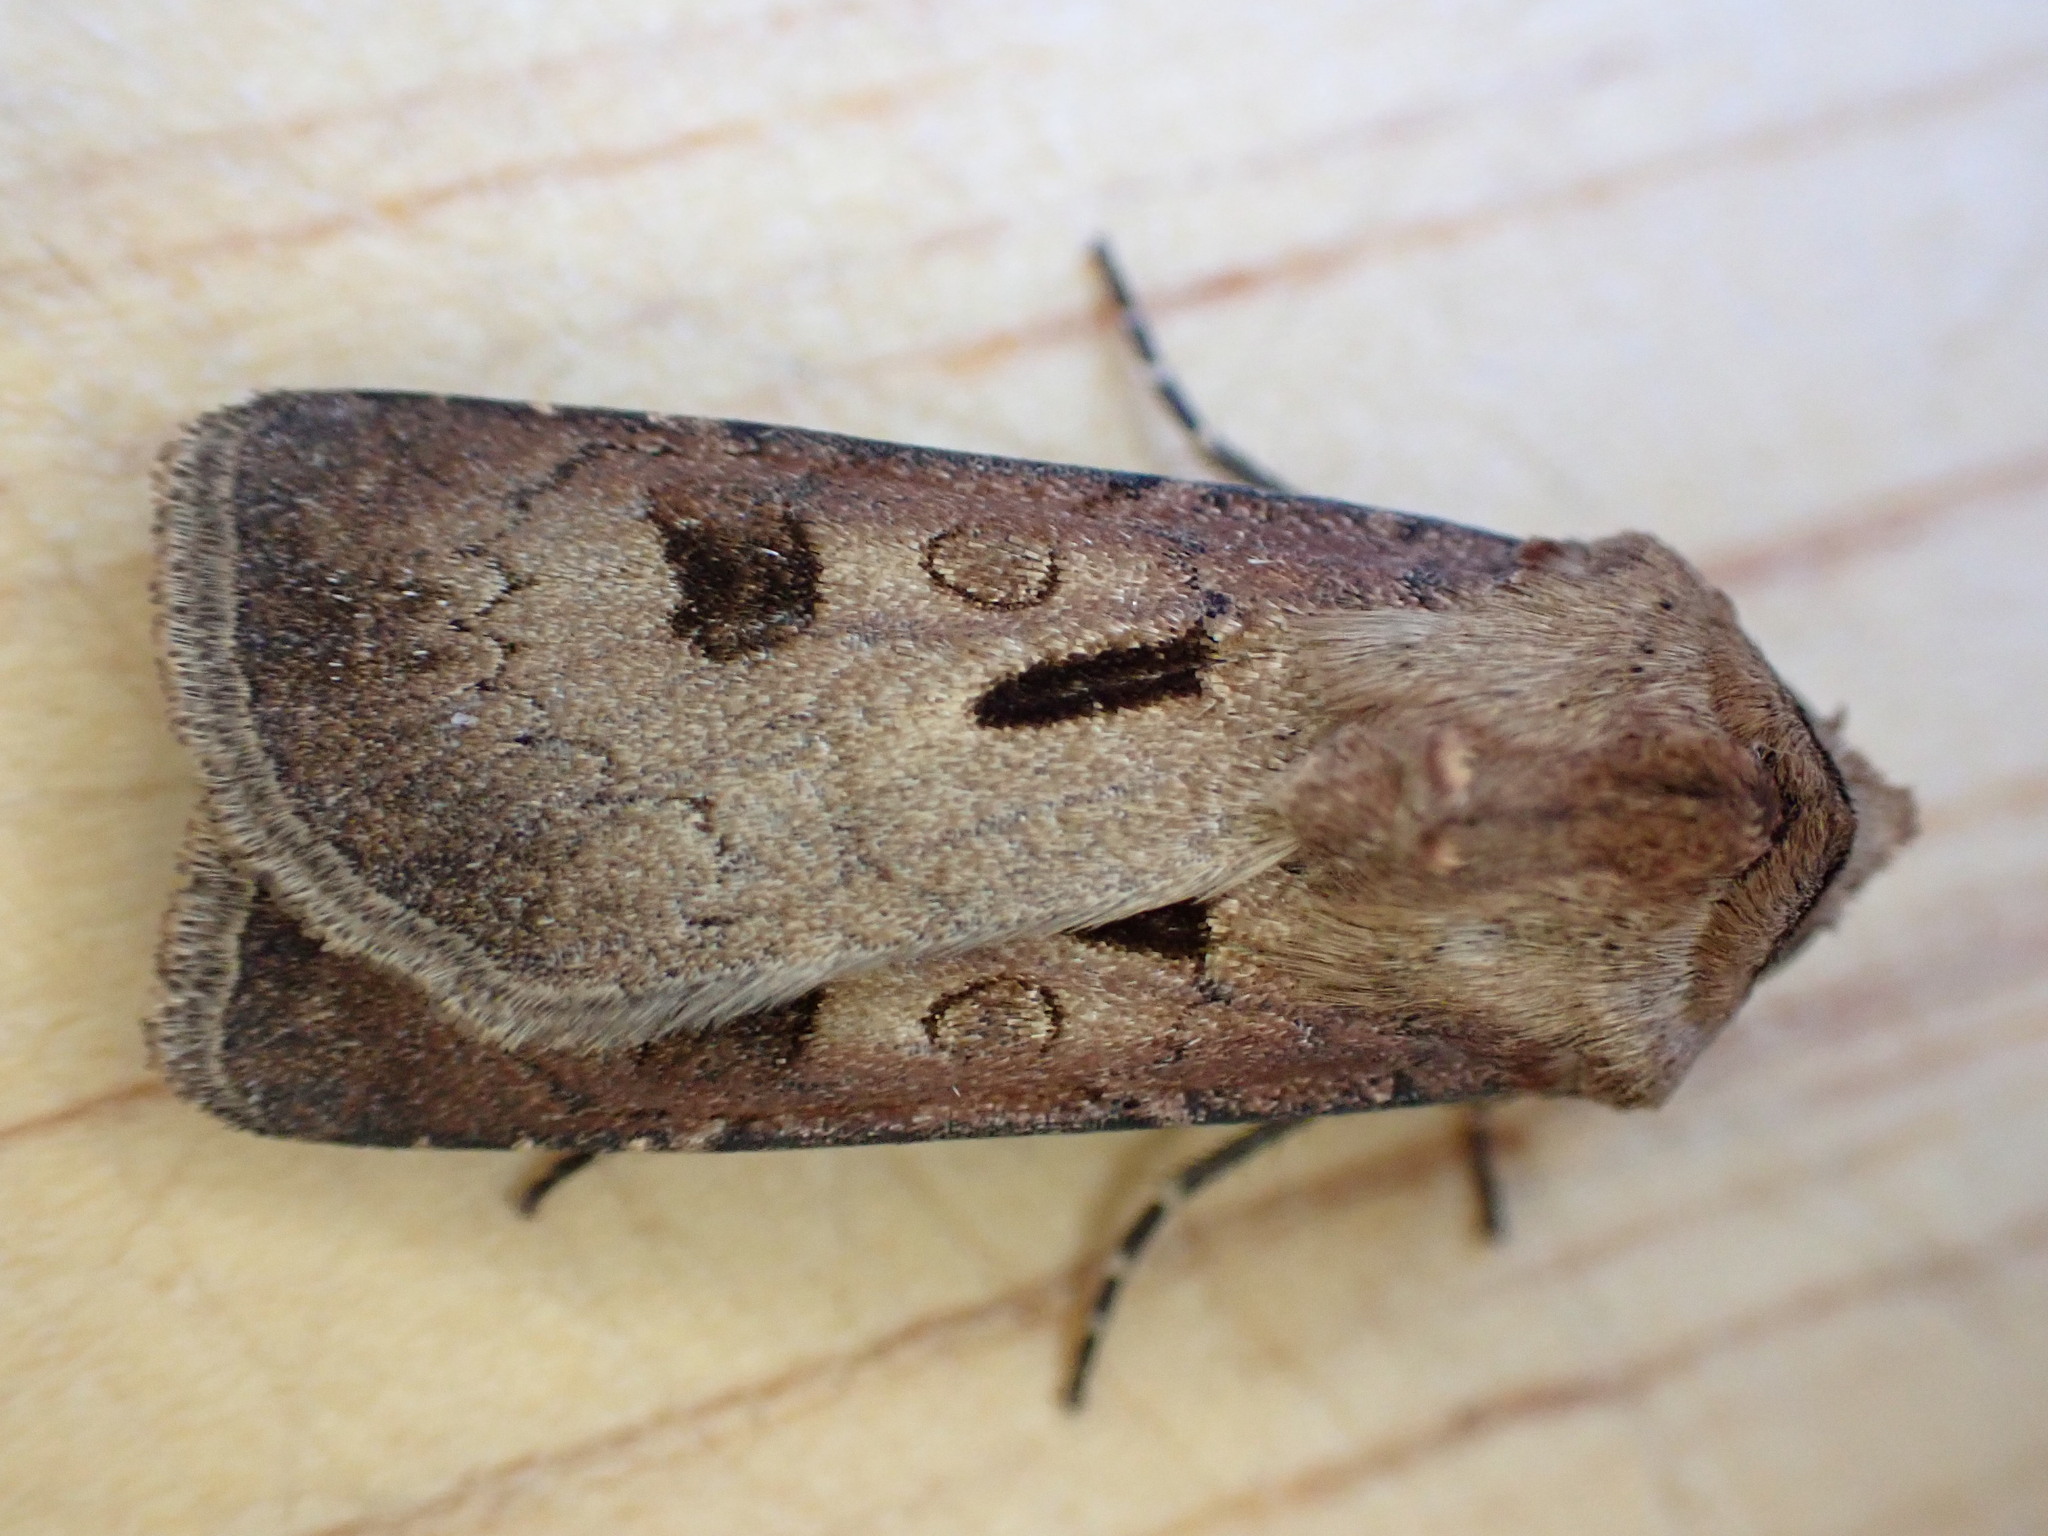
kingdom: Animalia
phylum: Arthropoda
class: Insecta
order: Lepidoptera
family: Noctuidae
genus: Agrotis
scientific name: Agrotis exclamationis
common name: Heart and dart
